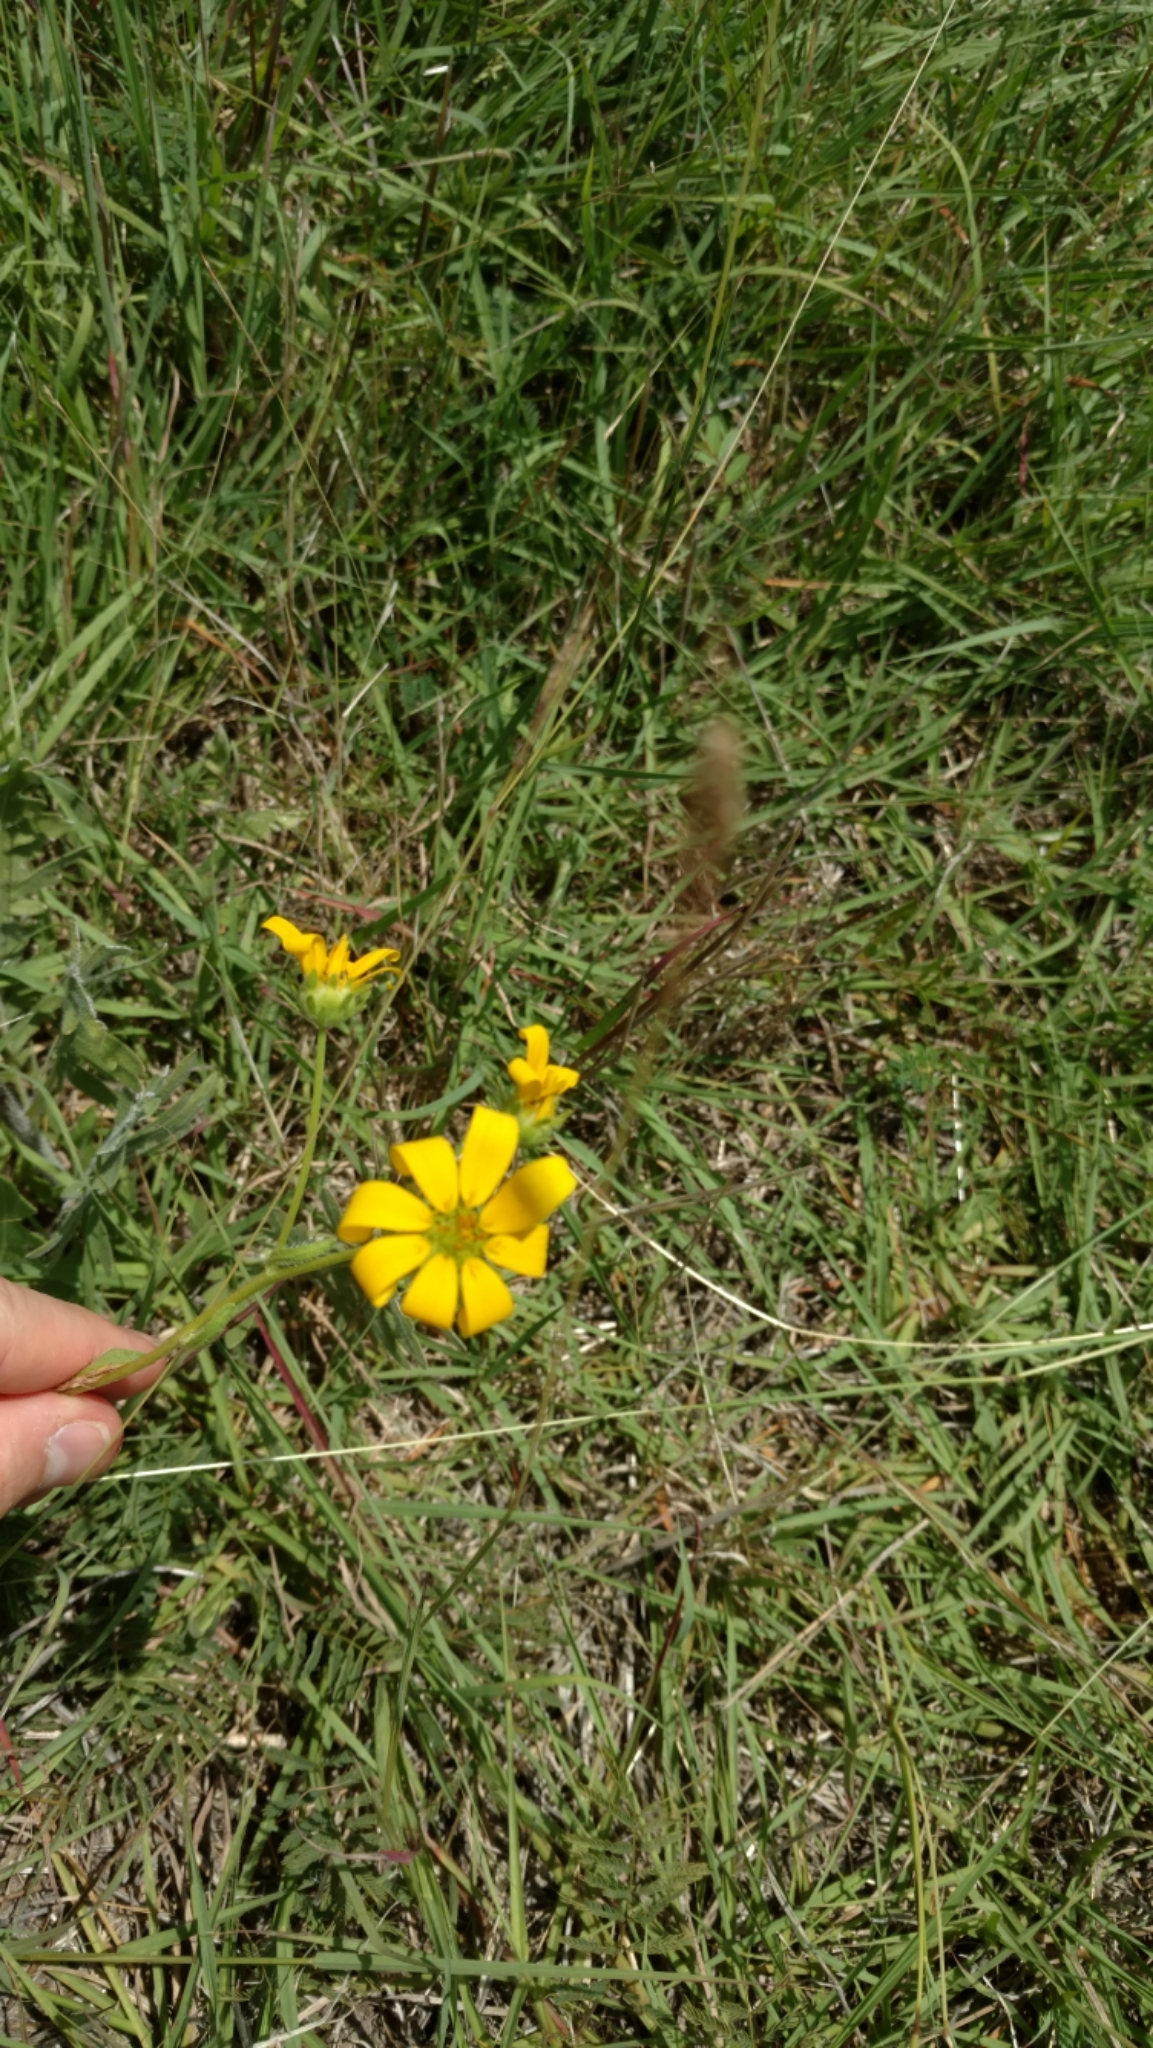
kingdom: Plantae
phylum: Tracheophyta
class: Magnoliopsida
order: Asterales
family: Asteraceae
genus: Engelmannia
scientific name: Engelmannia peristenia
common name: Engelmann's daisy
